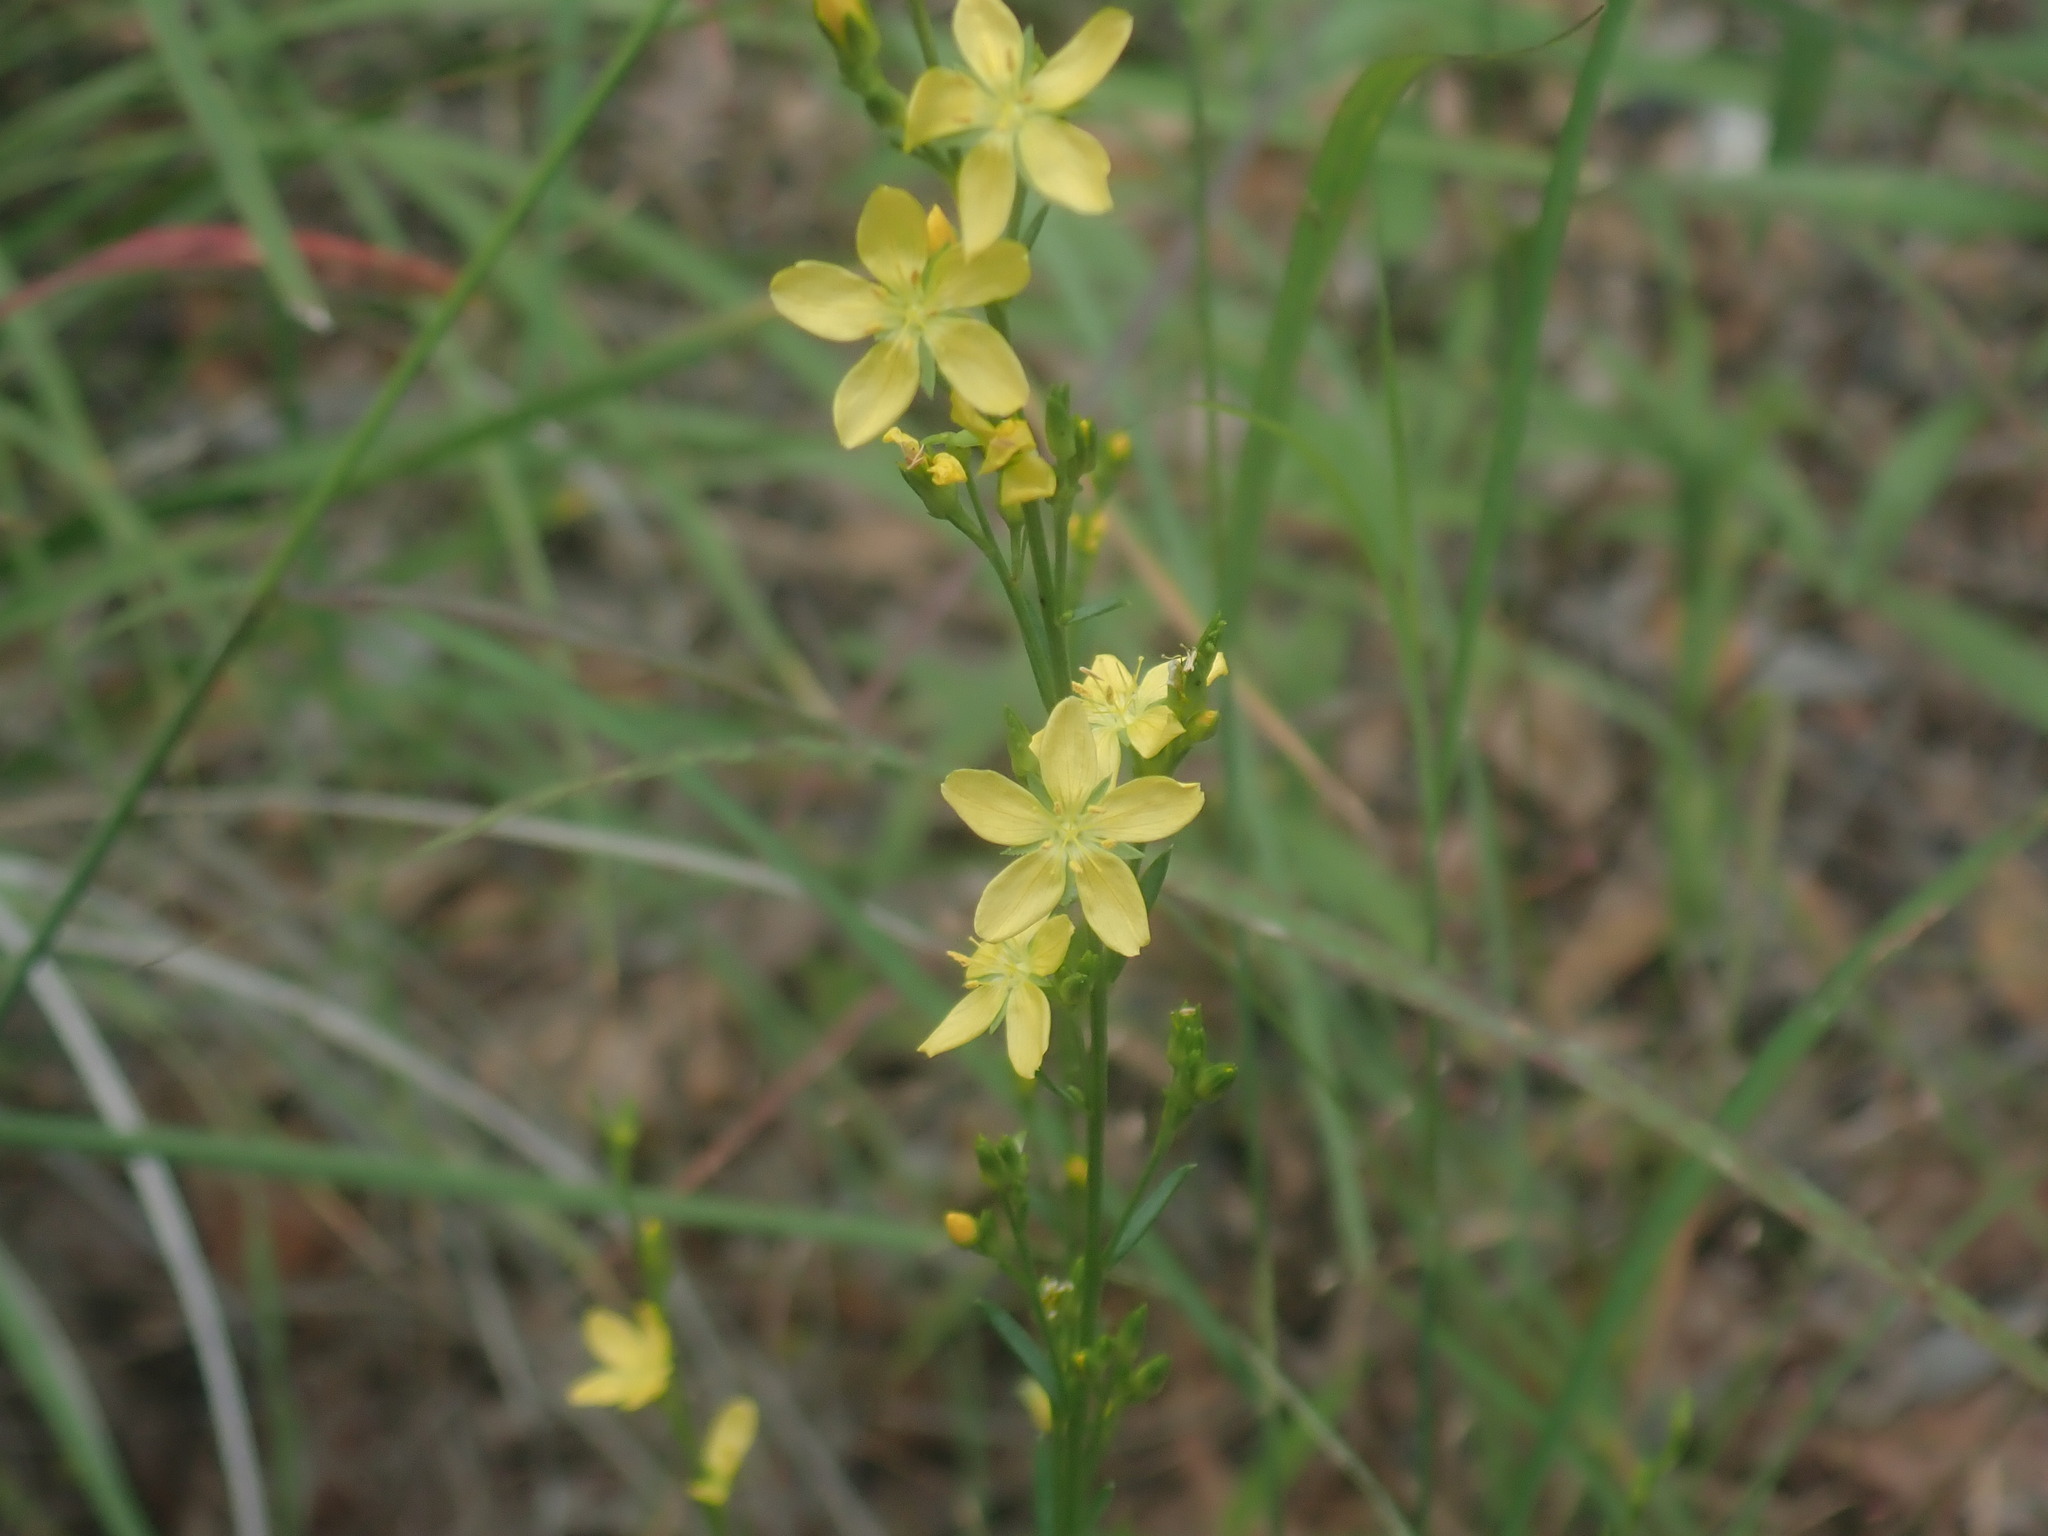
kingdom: Plantae
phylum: Tracheophyta
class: Magnoliopsida
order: Malpighiales
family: Linaceae
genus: Linum
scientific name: Linum neomexicanum
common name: New mexico yellow flax
